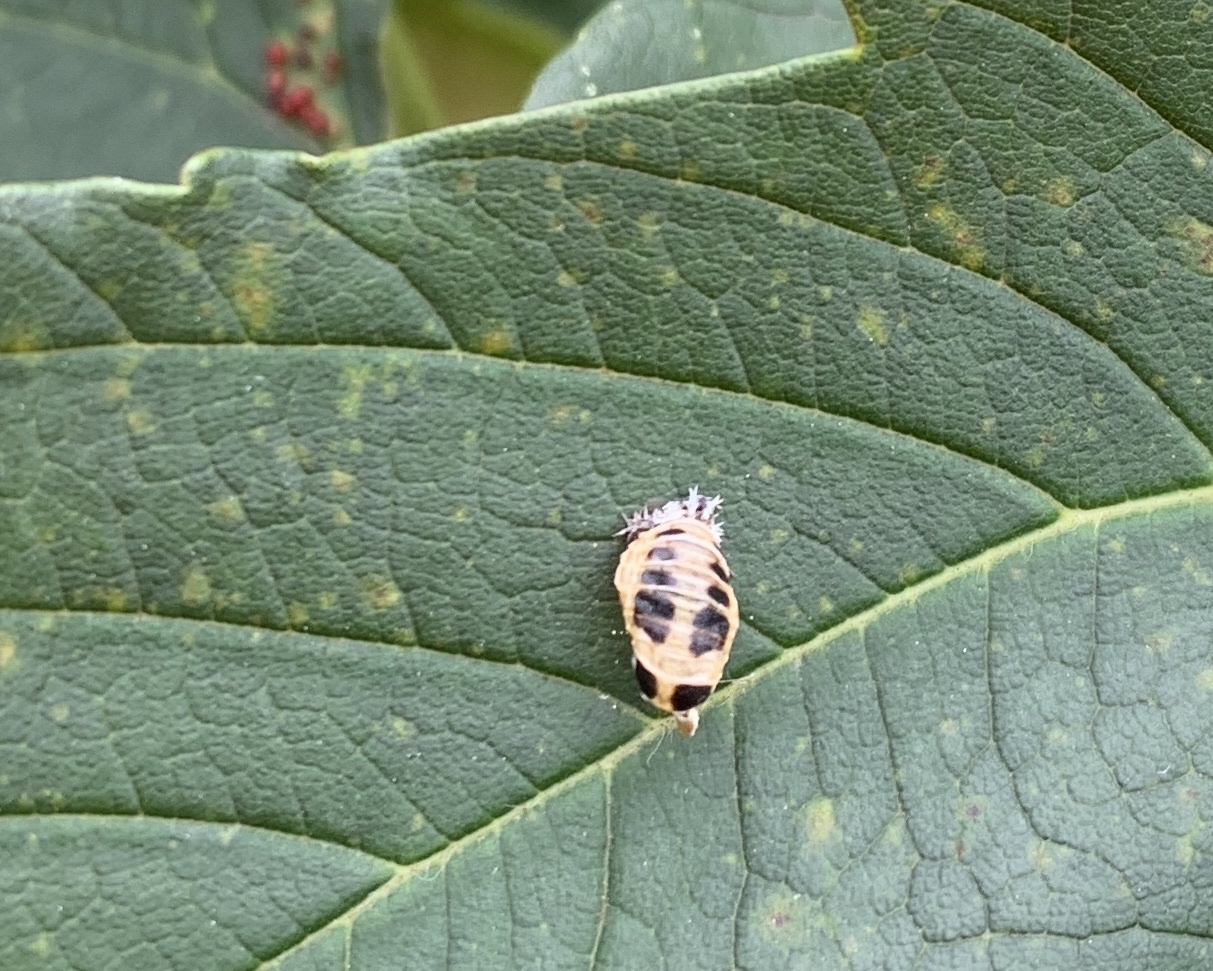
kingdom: Animalia
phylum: Arthropoda
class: Insecta
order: Coleoptera
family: Coccinellidae
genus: Harmonia
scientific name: Harmonia axyridis
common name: Harlequin ladybird
